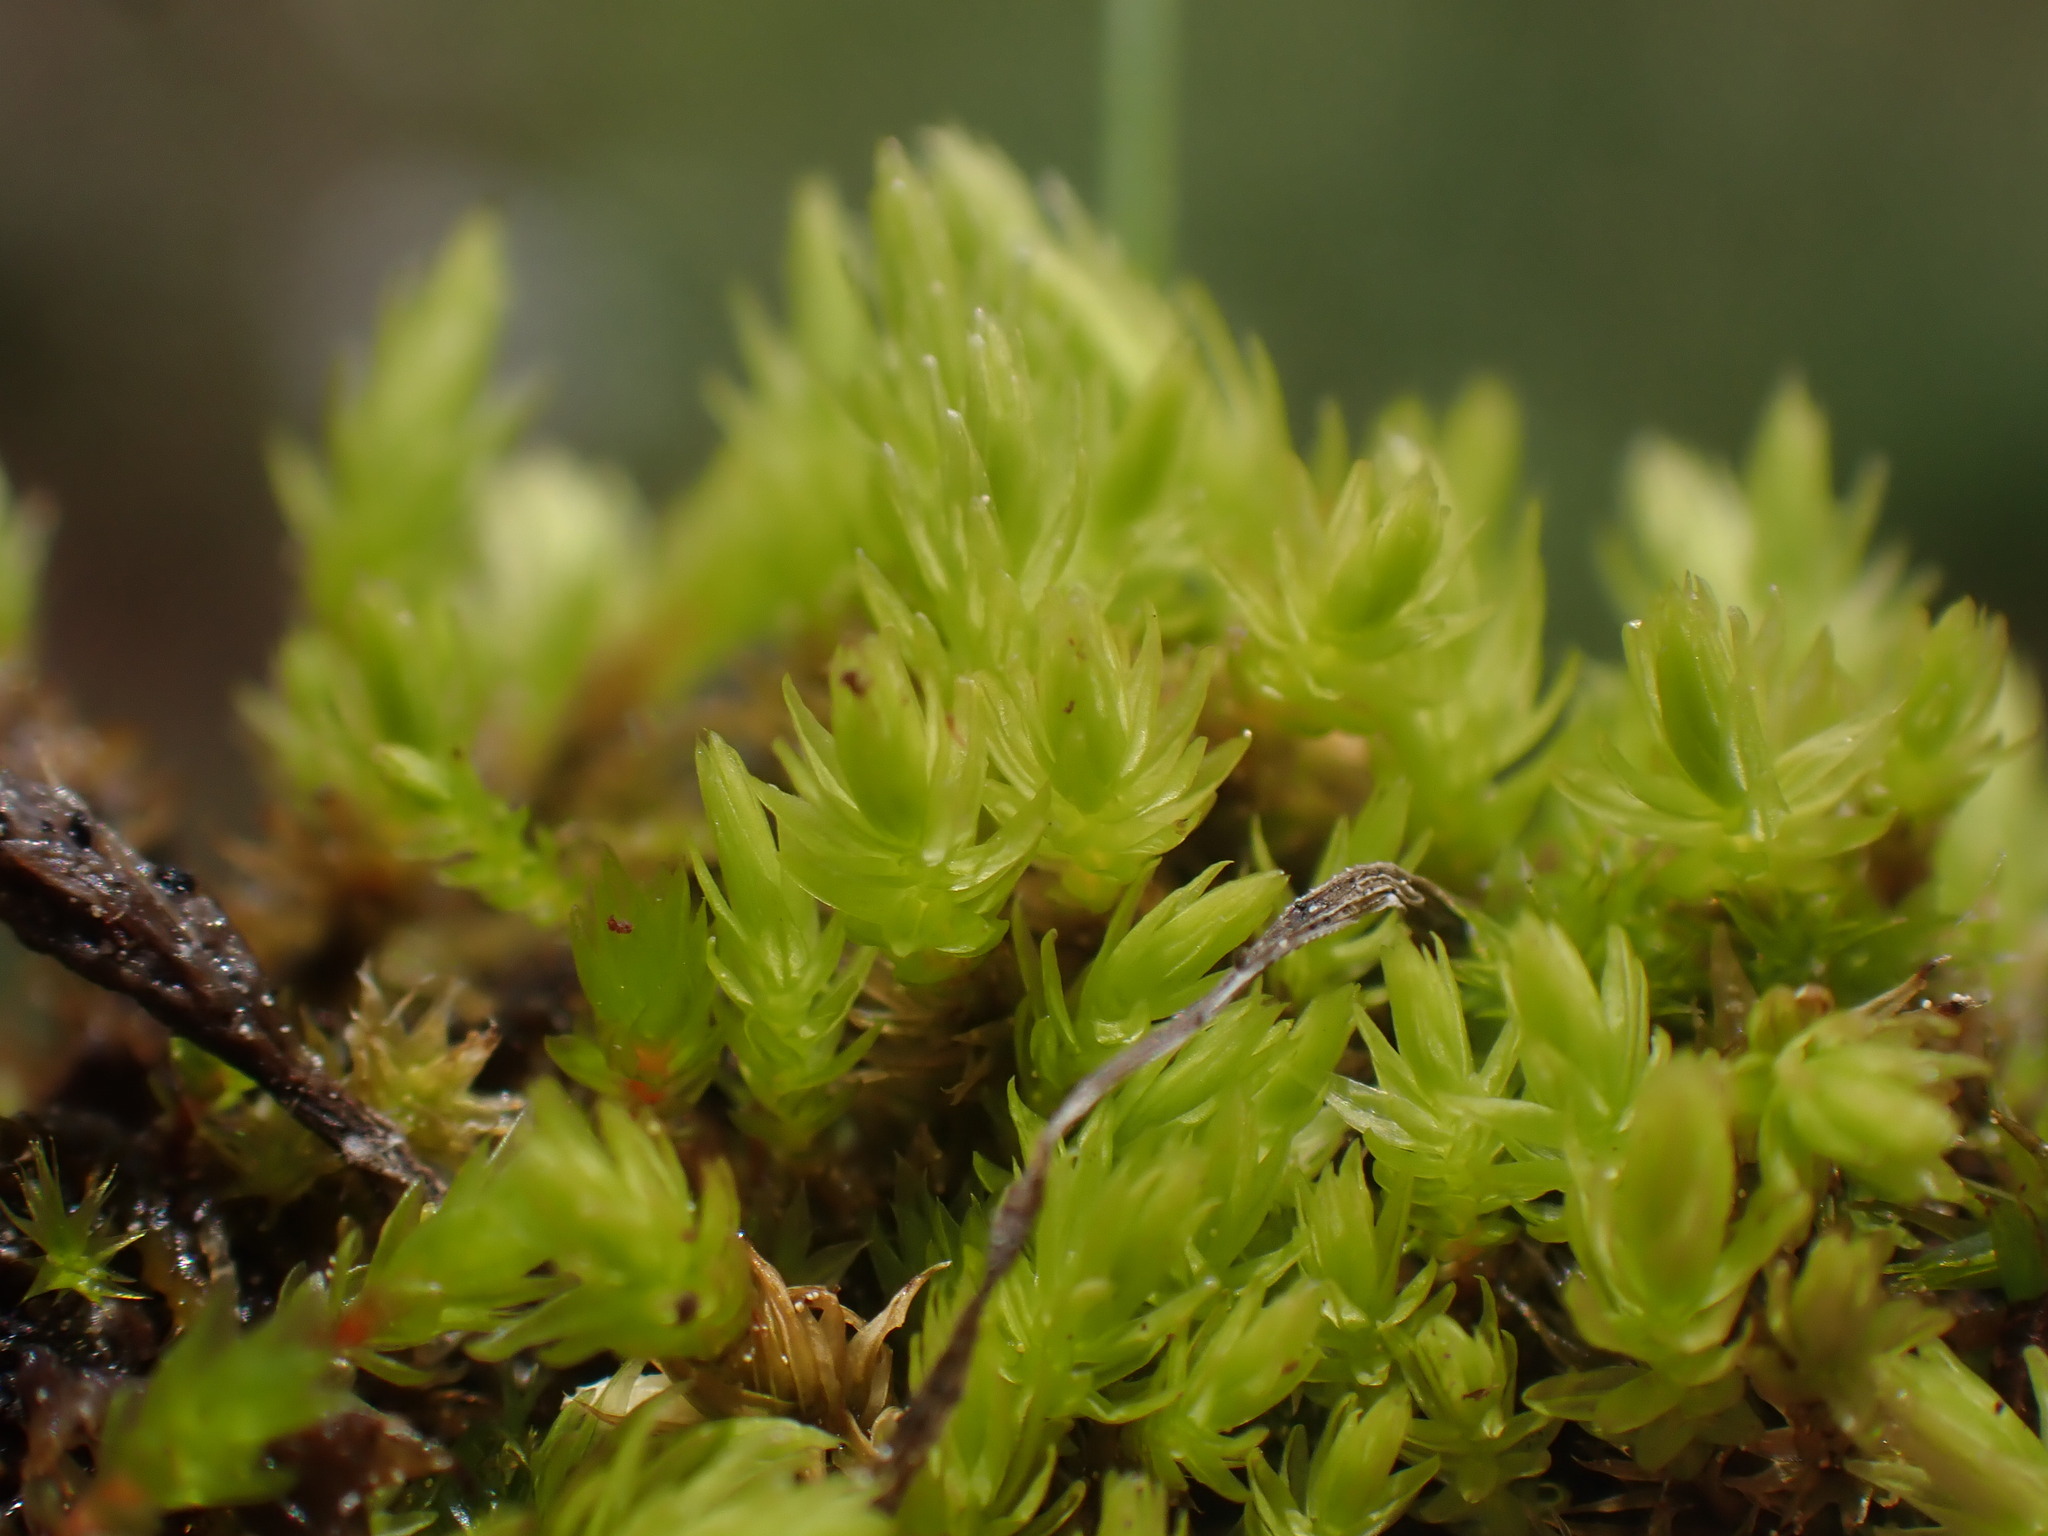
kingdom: Plantae
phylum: Bryophyta
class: Bryopsida
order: Aulacomniales
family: Aulacomniaceae
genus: Aulacomnium
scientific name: Aulacomnium palustre
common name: Bog groove-moss
